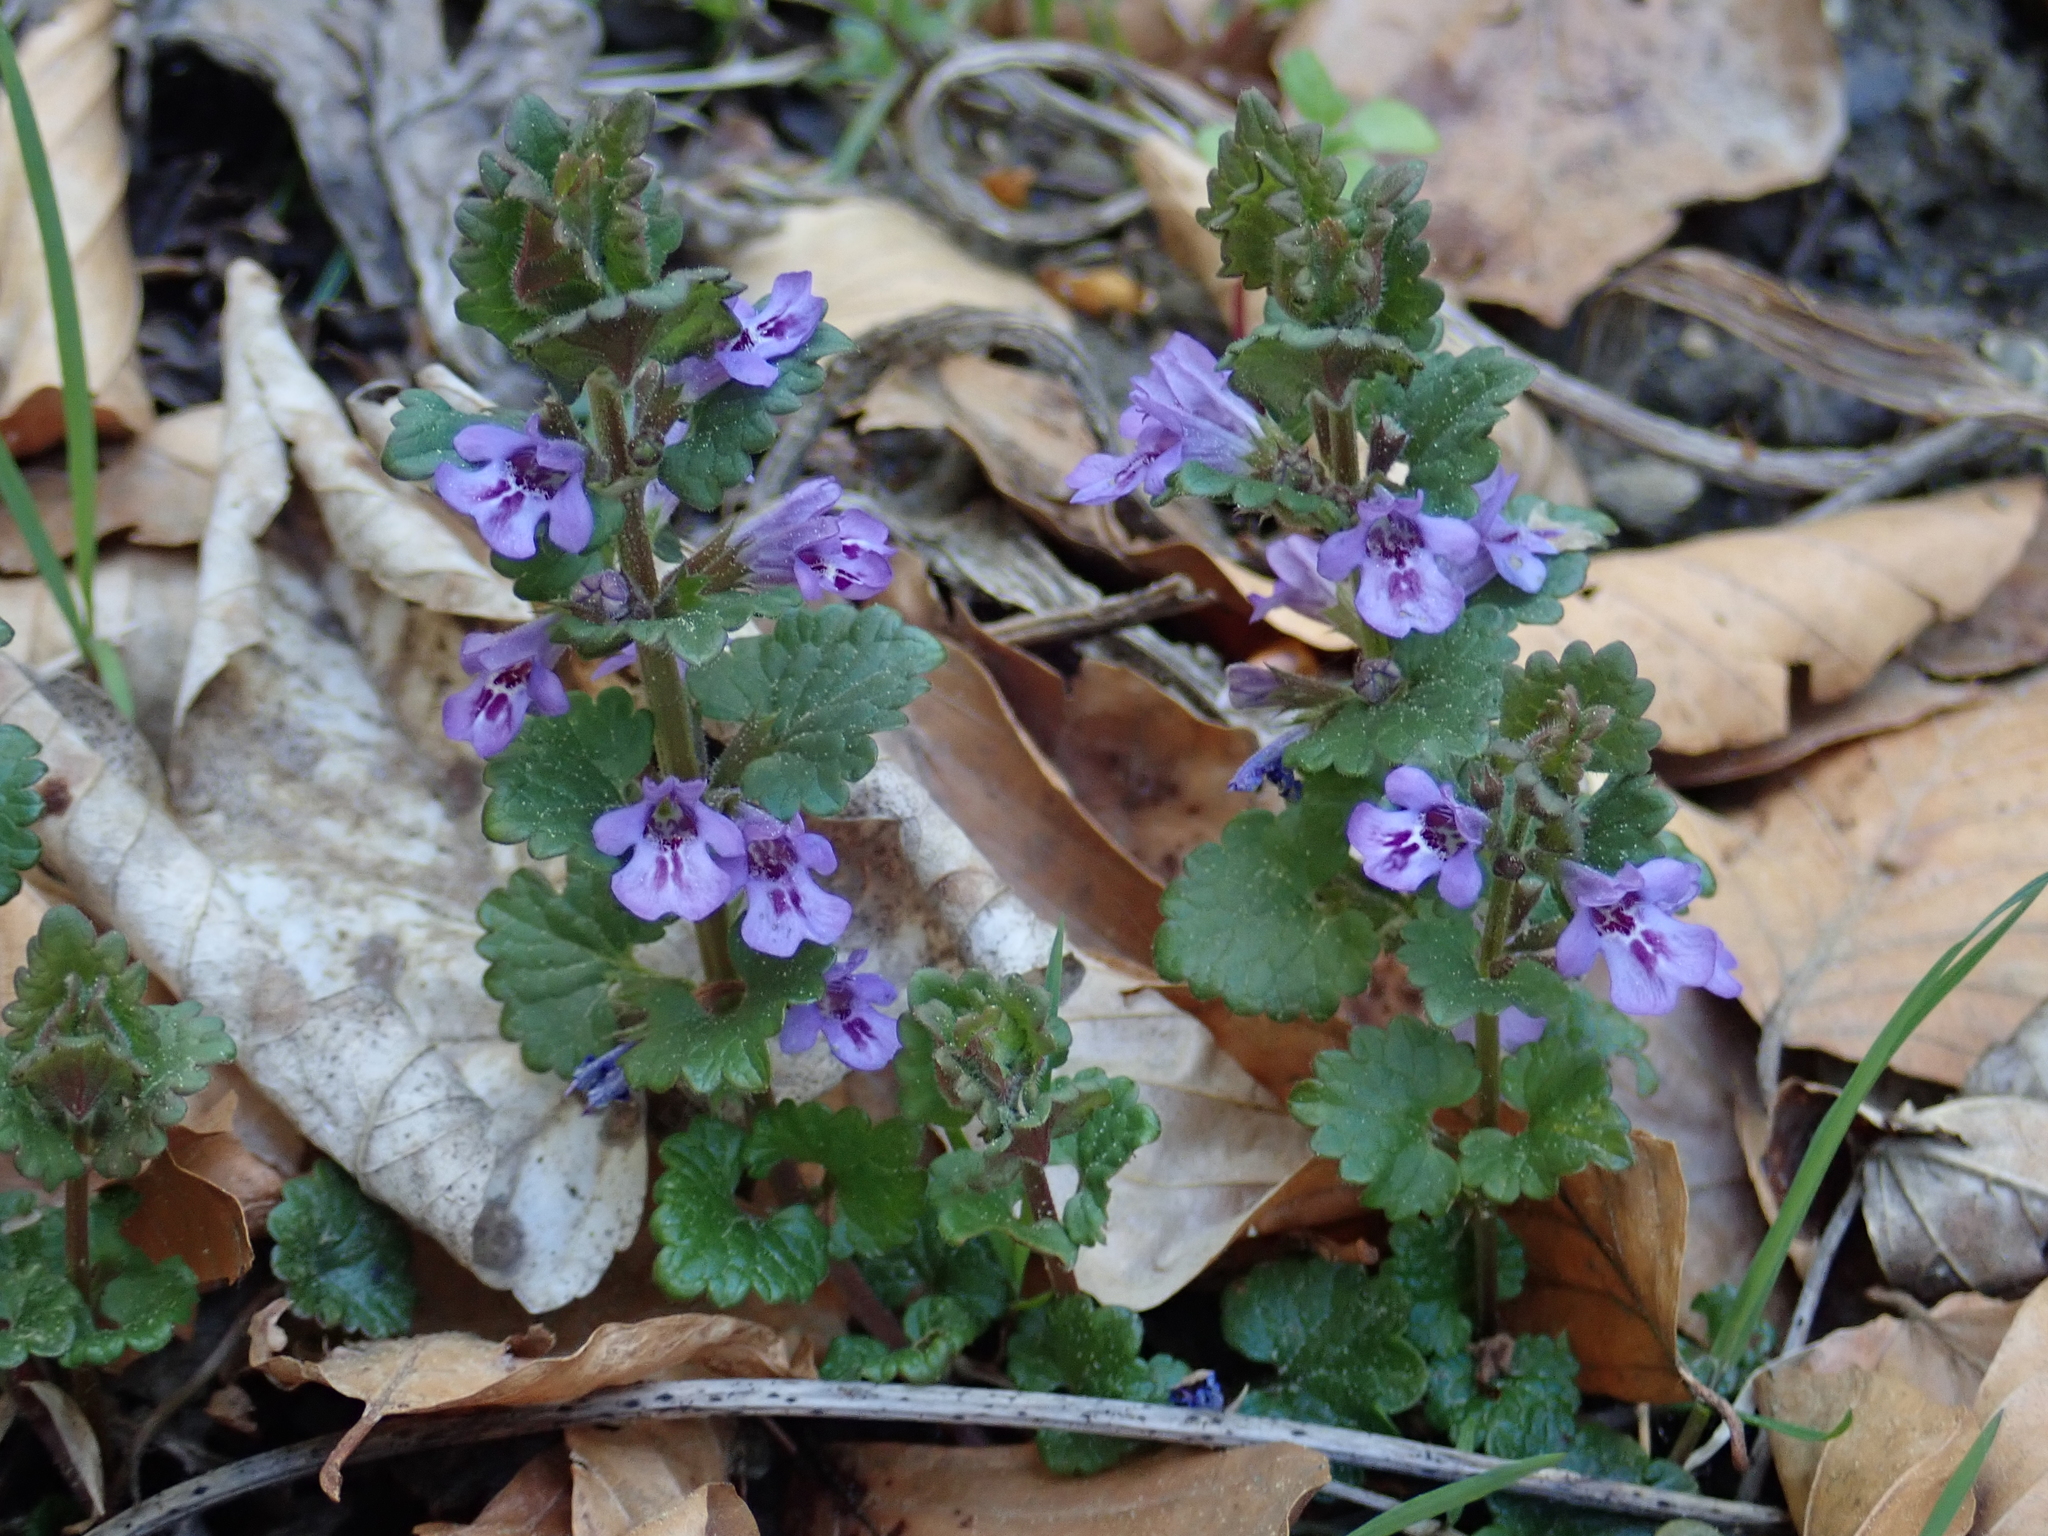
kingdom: Plantae
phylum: Tracheophyta
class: Magnoliopsida
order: Lamiales
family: Lamiaceae
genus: Glechoma
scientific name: Glechoma hederacea
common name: Ground ivy
